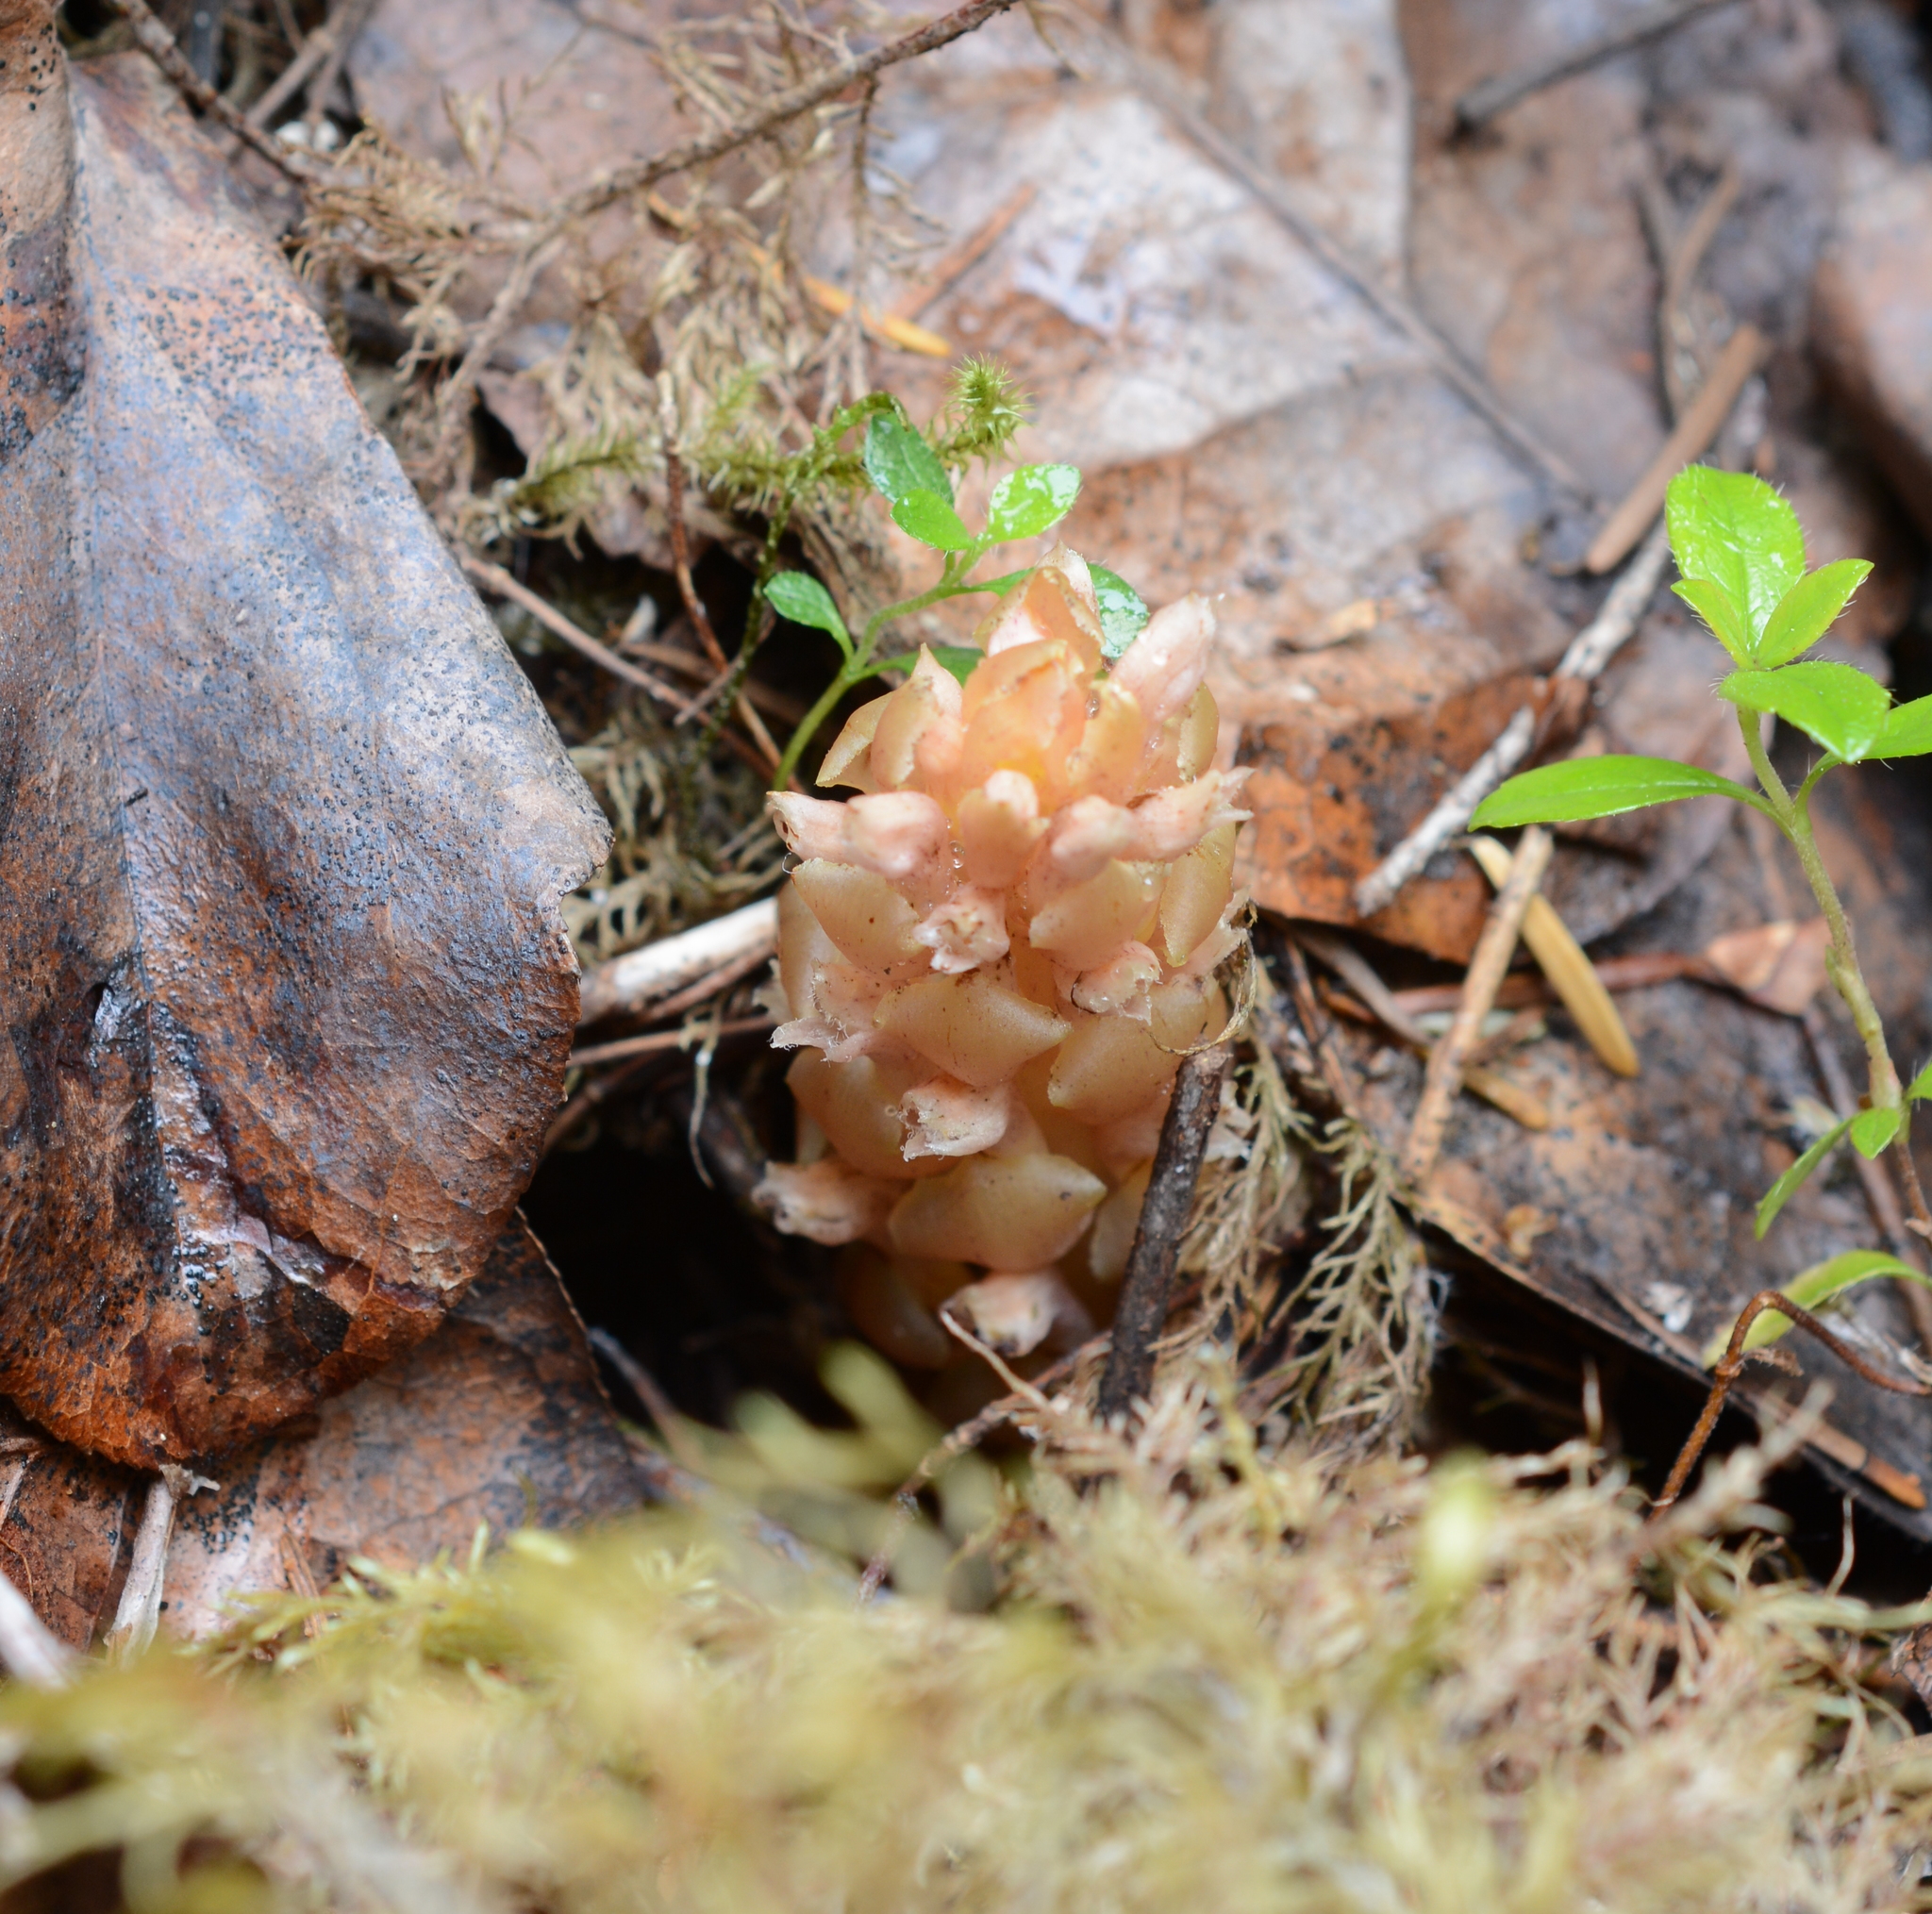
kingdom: Plantae
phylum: Tracheophyta
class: Magnoliopsida
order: Lamiales
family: Orobanchaceae
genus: Kopsiopsis
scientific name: Kopsiopsis hookeri
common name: Hooker's groundcone
